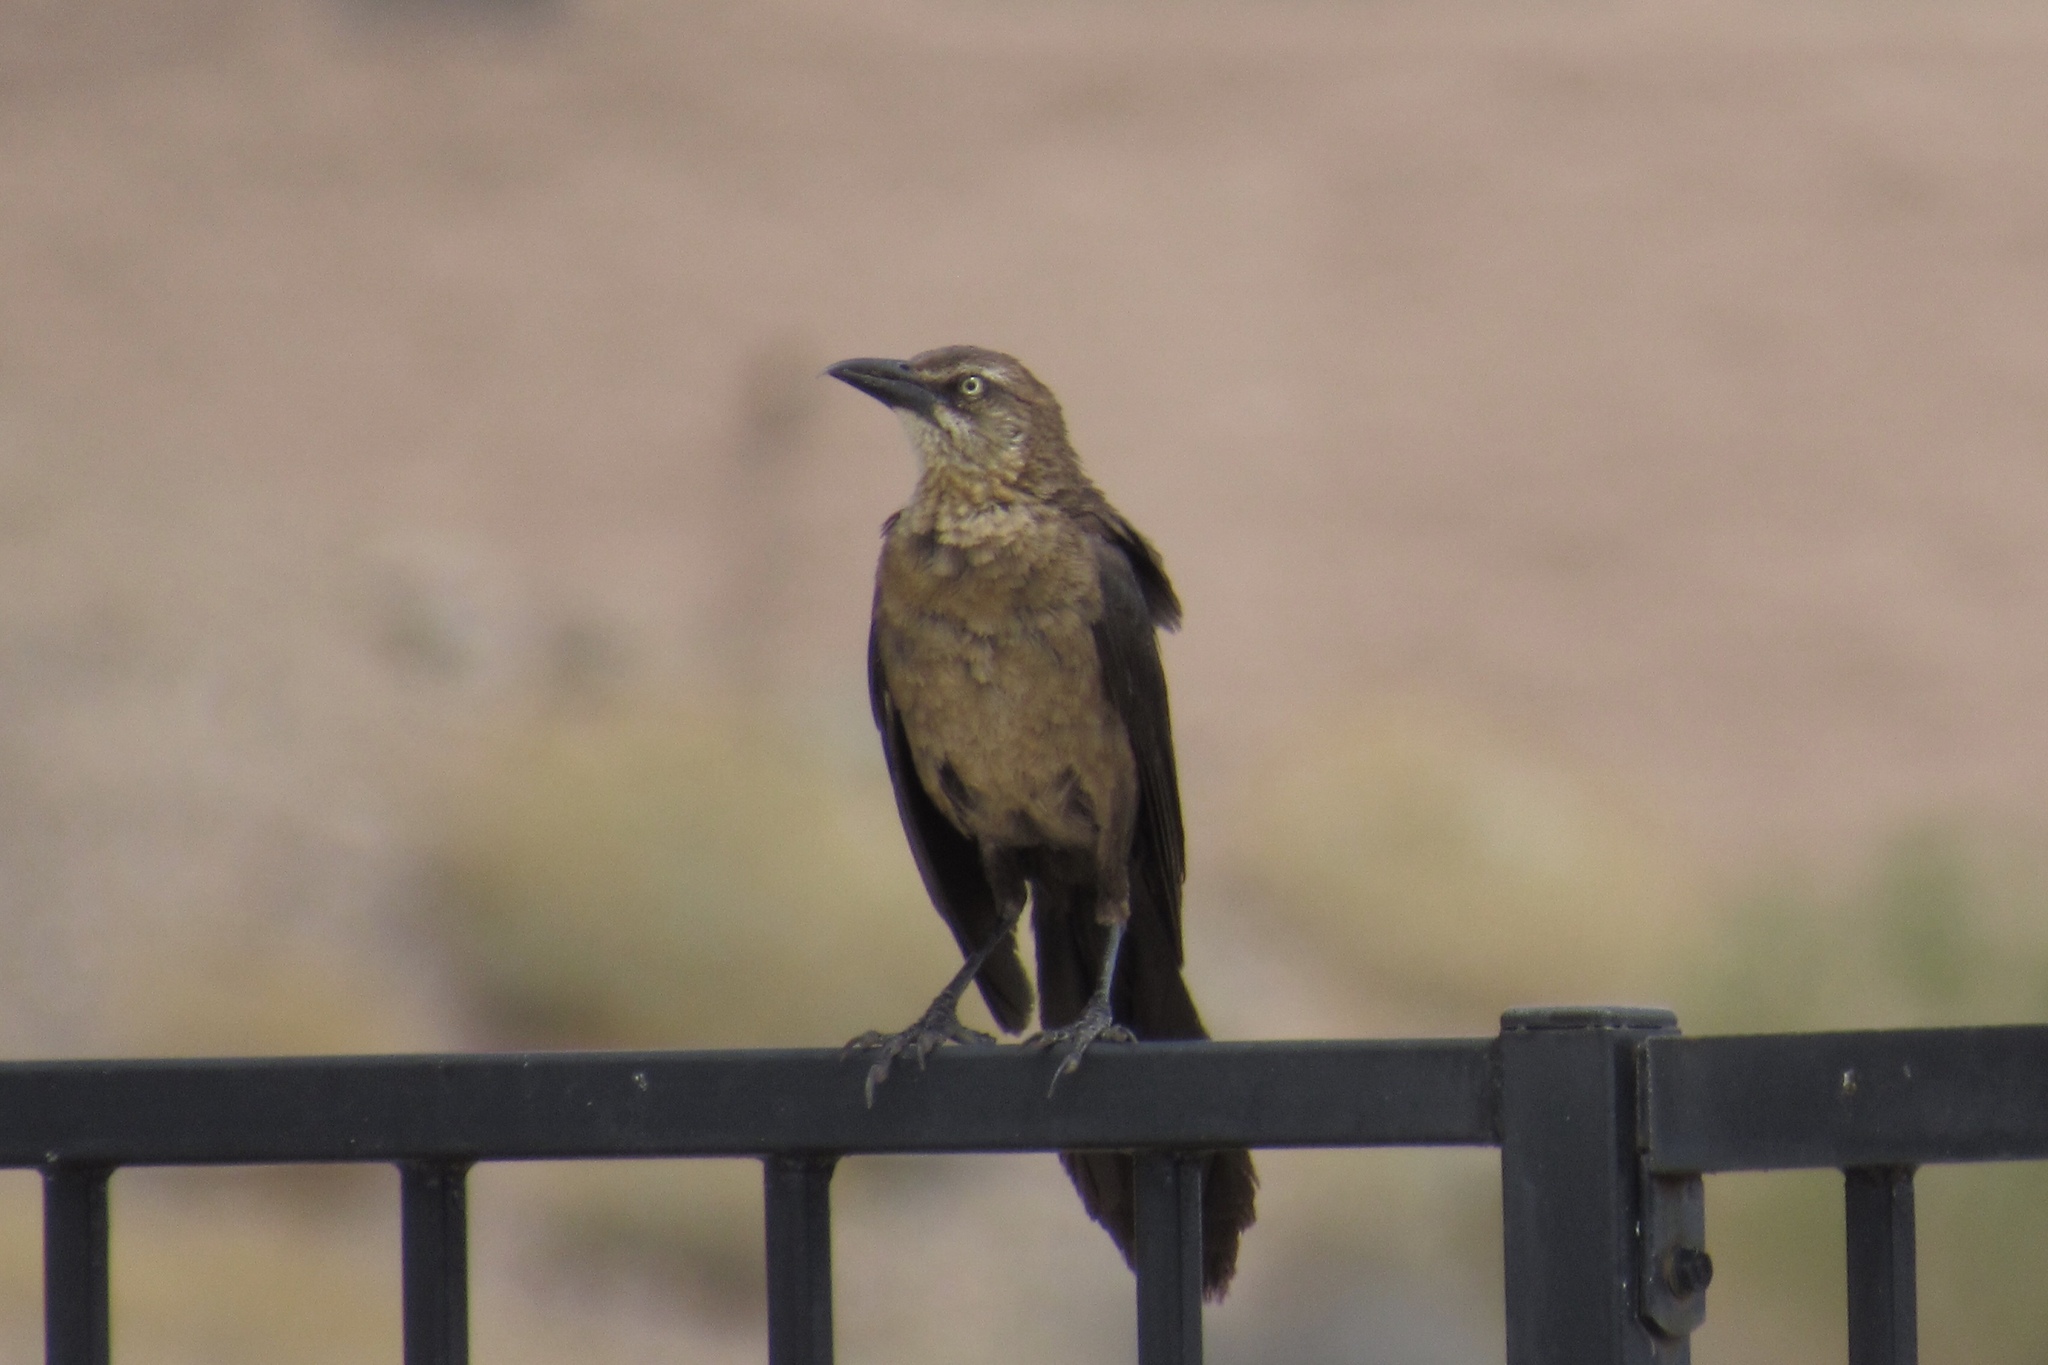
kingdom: Animalia
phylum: Chordata
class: Aves
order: Passeriformes
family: Icteridae
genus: Quiscalus
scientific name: Quiscalus mexicanus
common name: Great-tailed grackle
